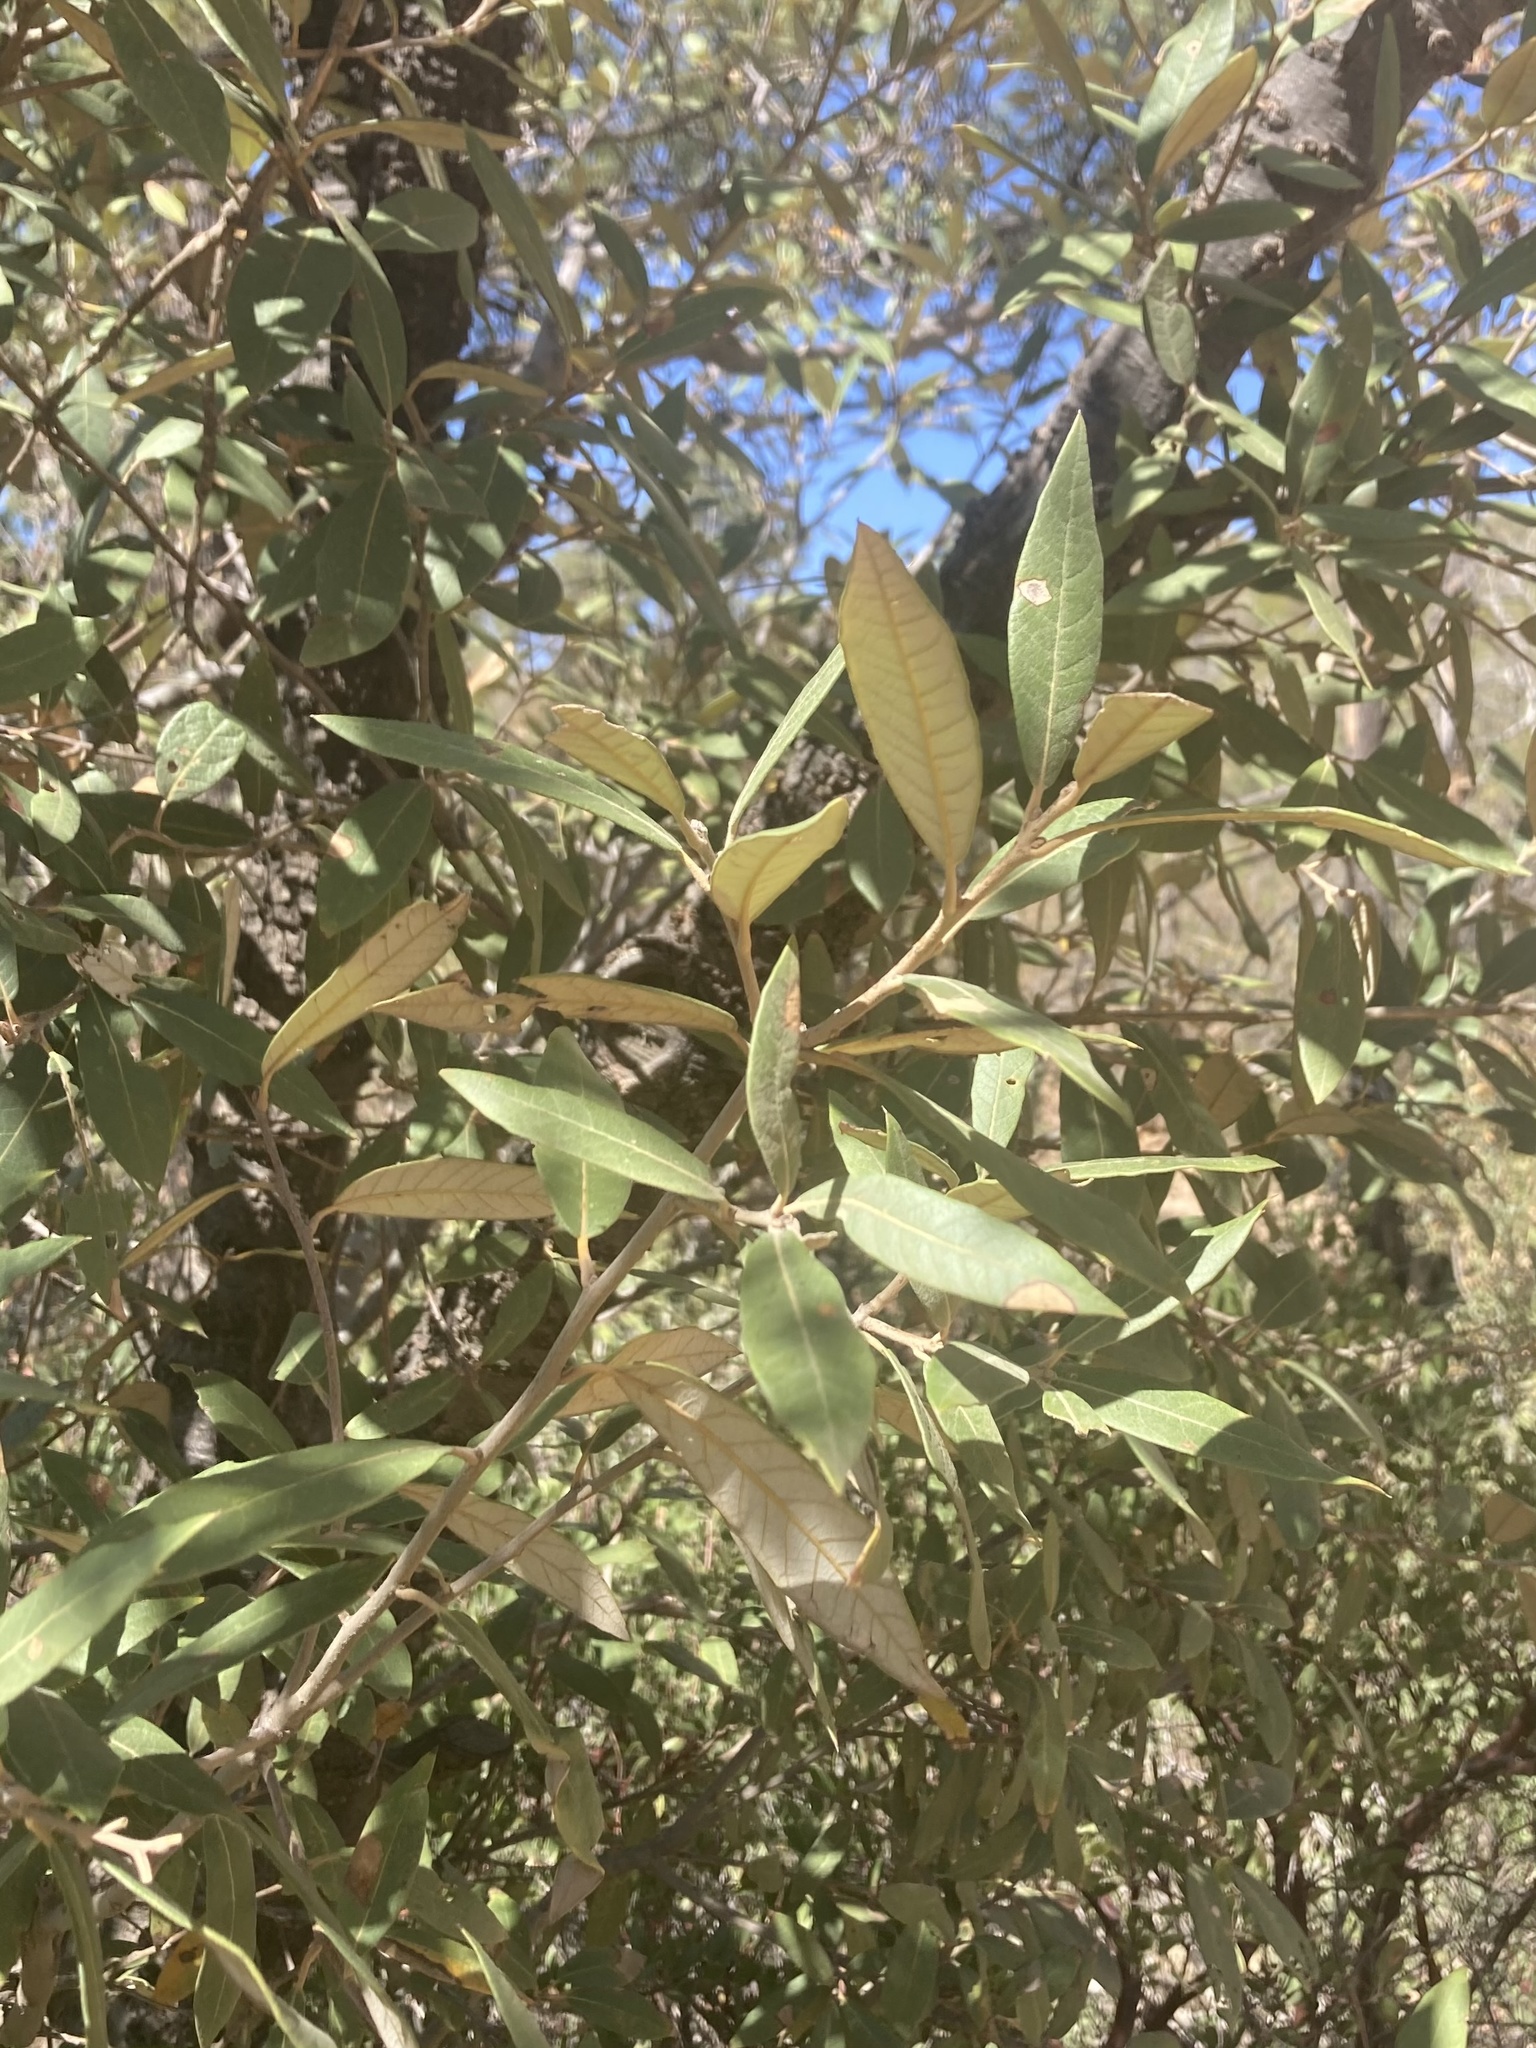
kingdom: Plantae
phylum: Tracheophyta
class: Magnoliopsida
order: Fagales
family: Fagaceae
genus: Quercus
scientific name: Quercus hypoleucoides
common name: Silverleaf oak
